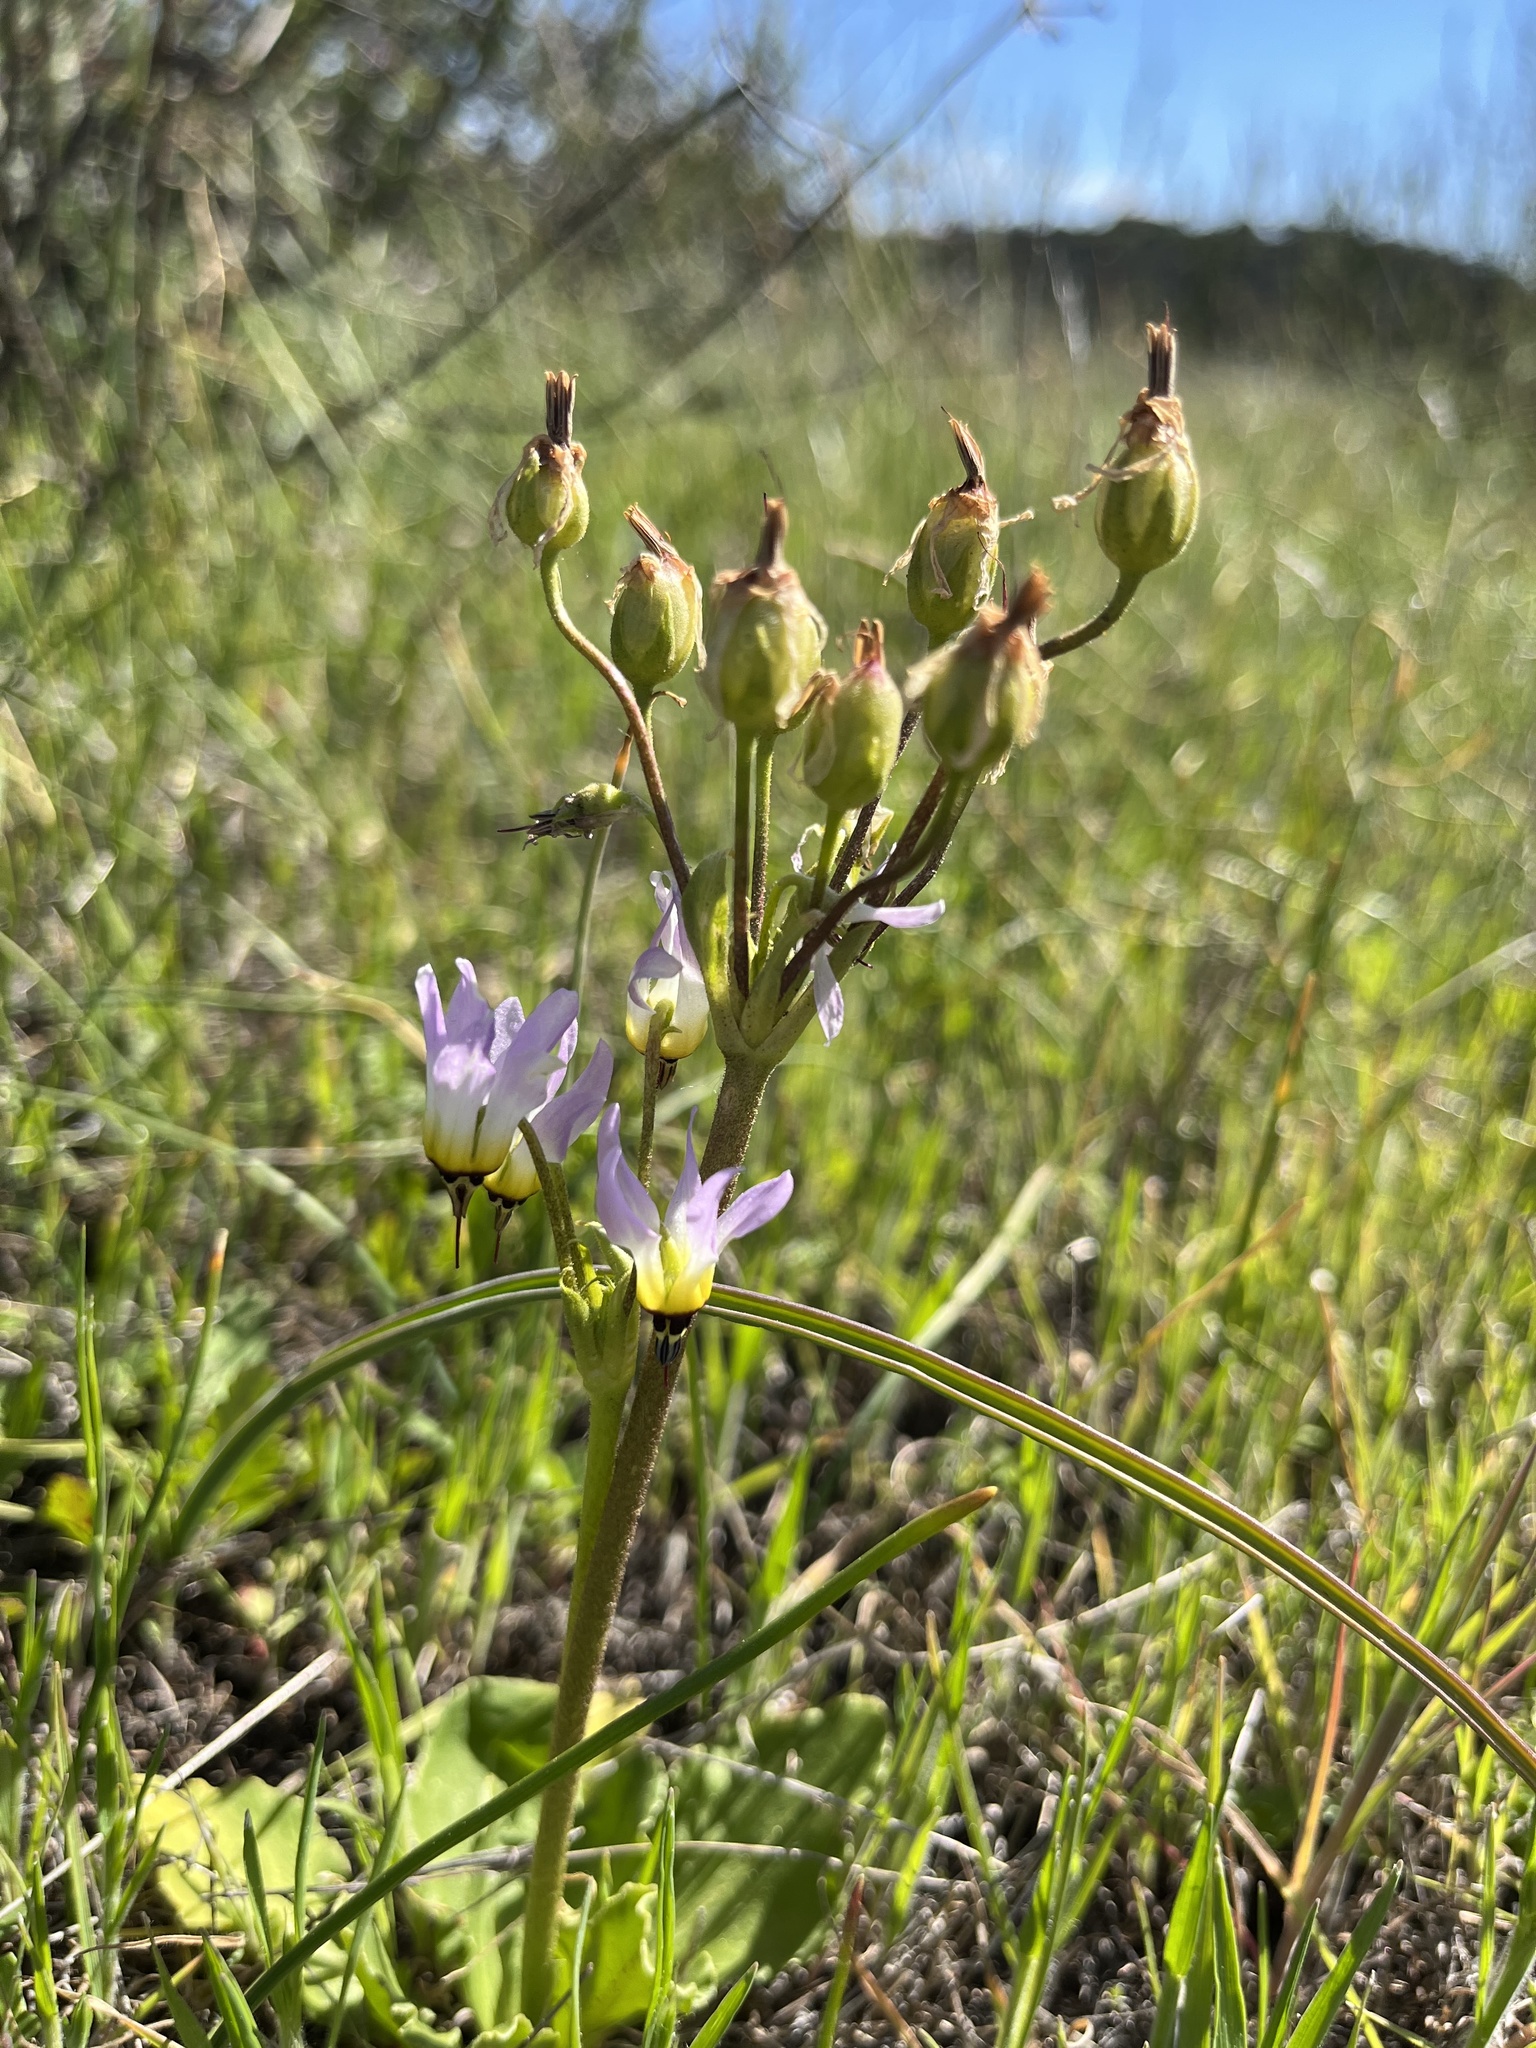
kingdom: Plantae
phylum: Tracheophyta
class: Magnoliopsida
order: Ericales
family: Primulaceae
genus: Dodecatheon
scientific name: Dodecatheon clevelandii
